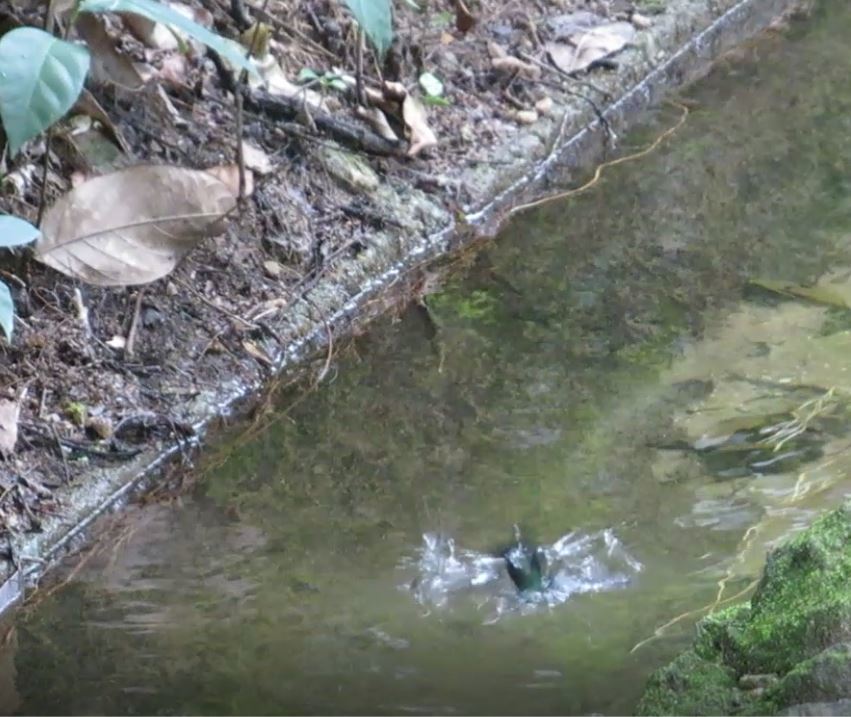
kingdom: Animalia
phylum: Chordata
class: Aves
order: Apodiformes
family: Trochilidae
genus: Thalurania
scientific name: Thalurania glaucopis
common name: Violet-capped woodnymph
